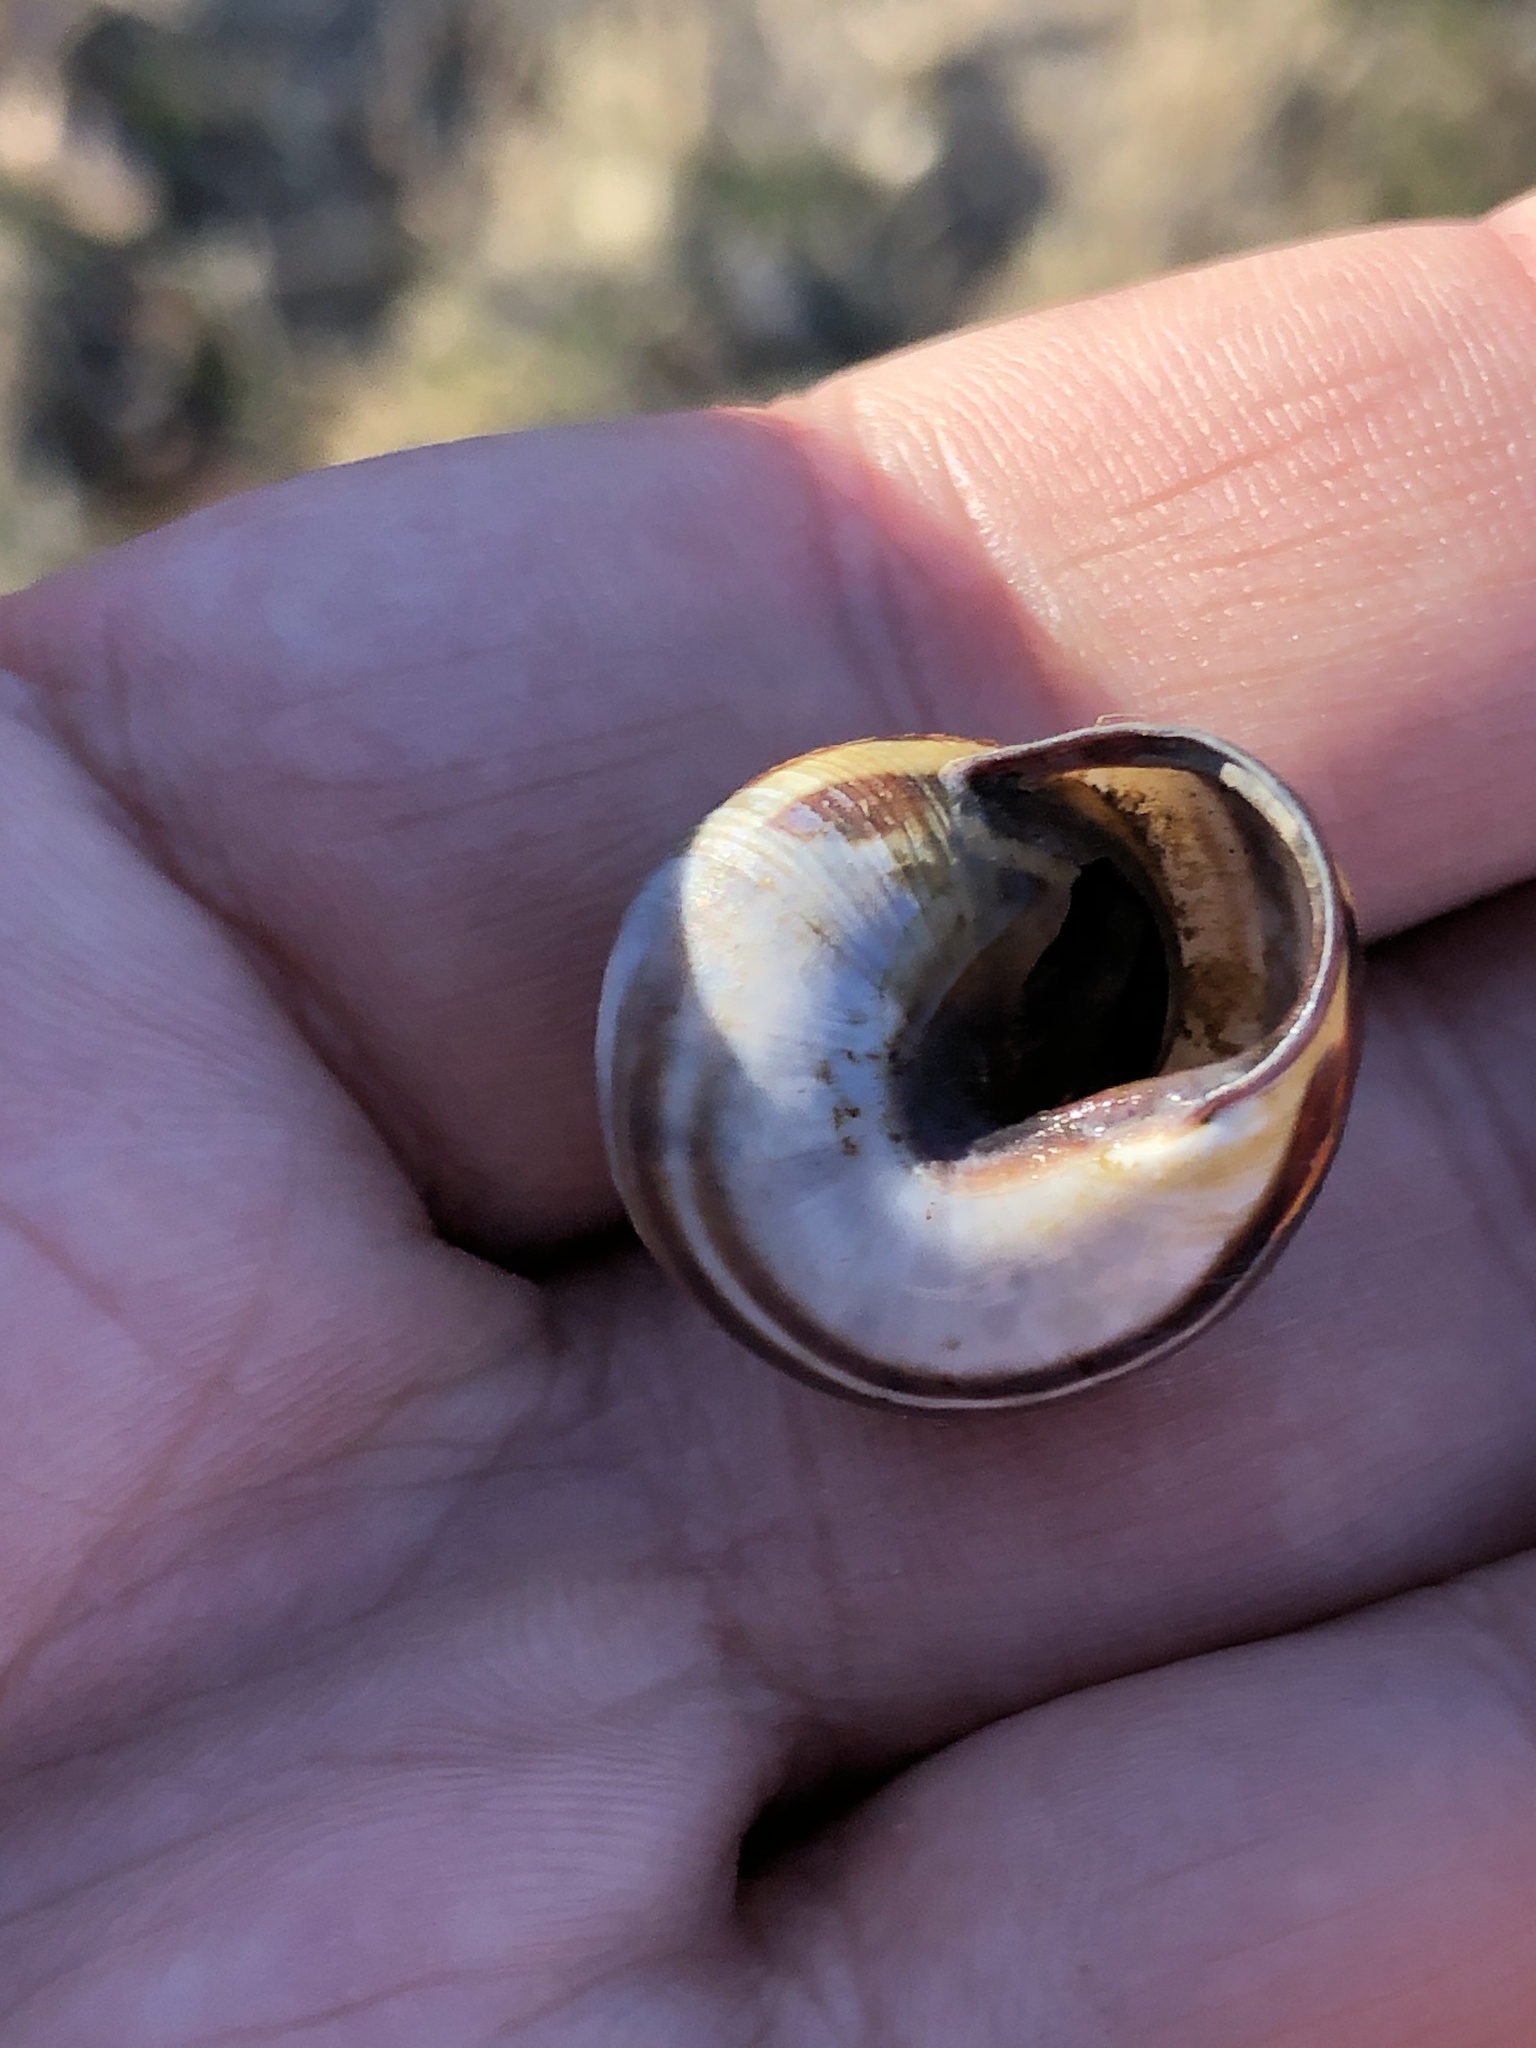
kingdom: Animalia
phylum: Mollusca
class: Gastropoda
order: Stylommatophora
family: Helicidae
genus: Cepaea
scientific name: Cepaea nemoralis
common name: Grovesnail
